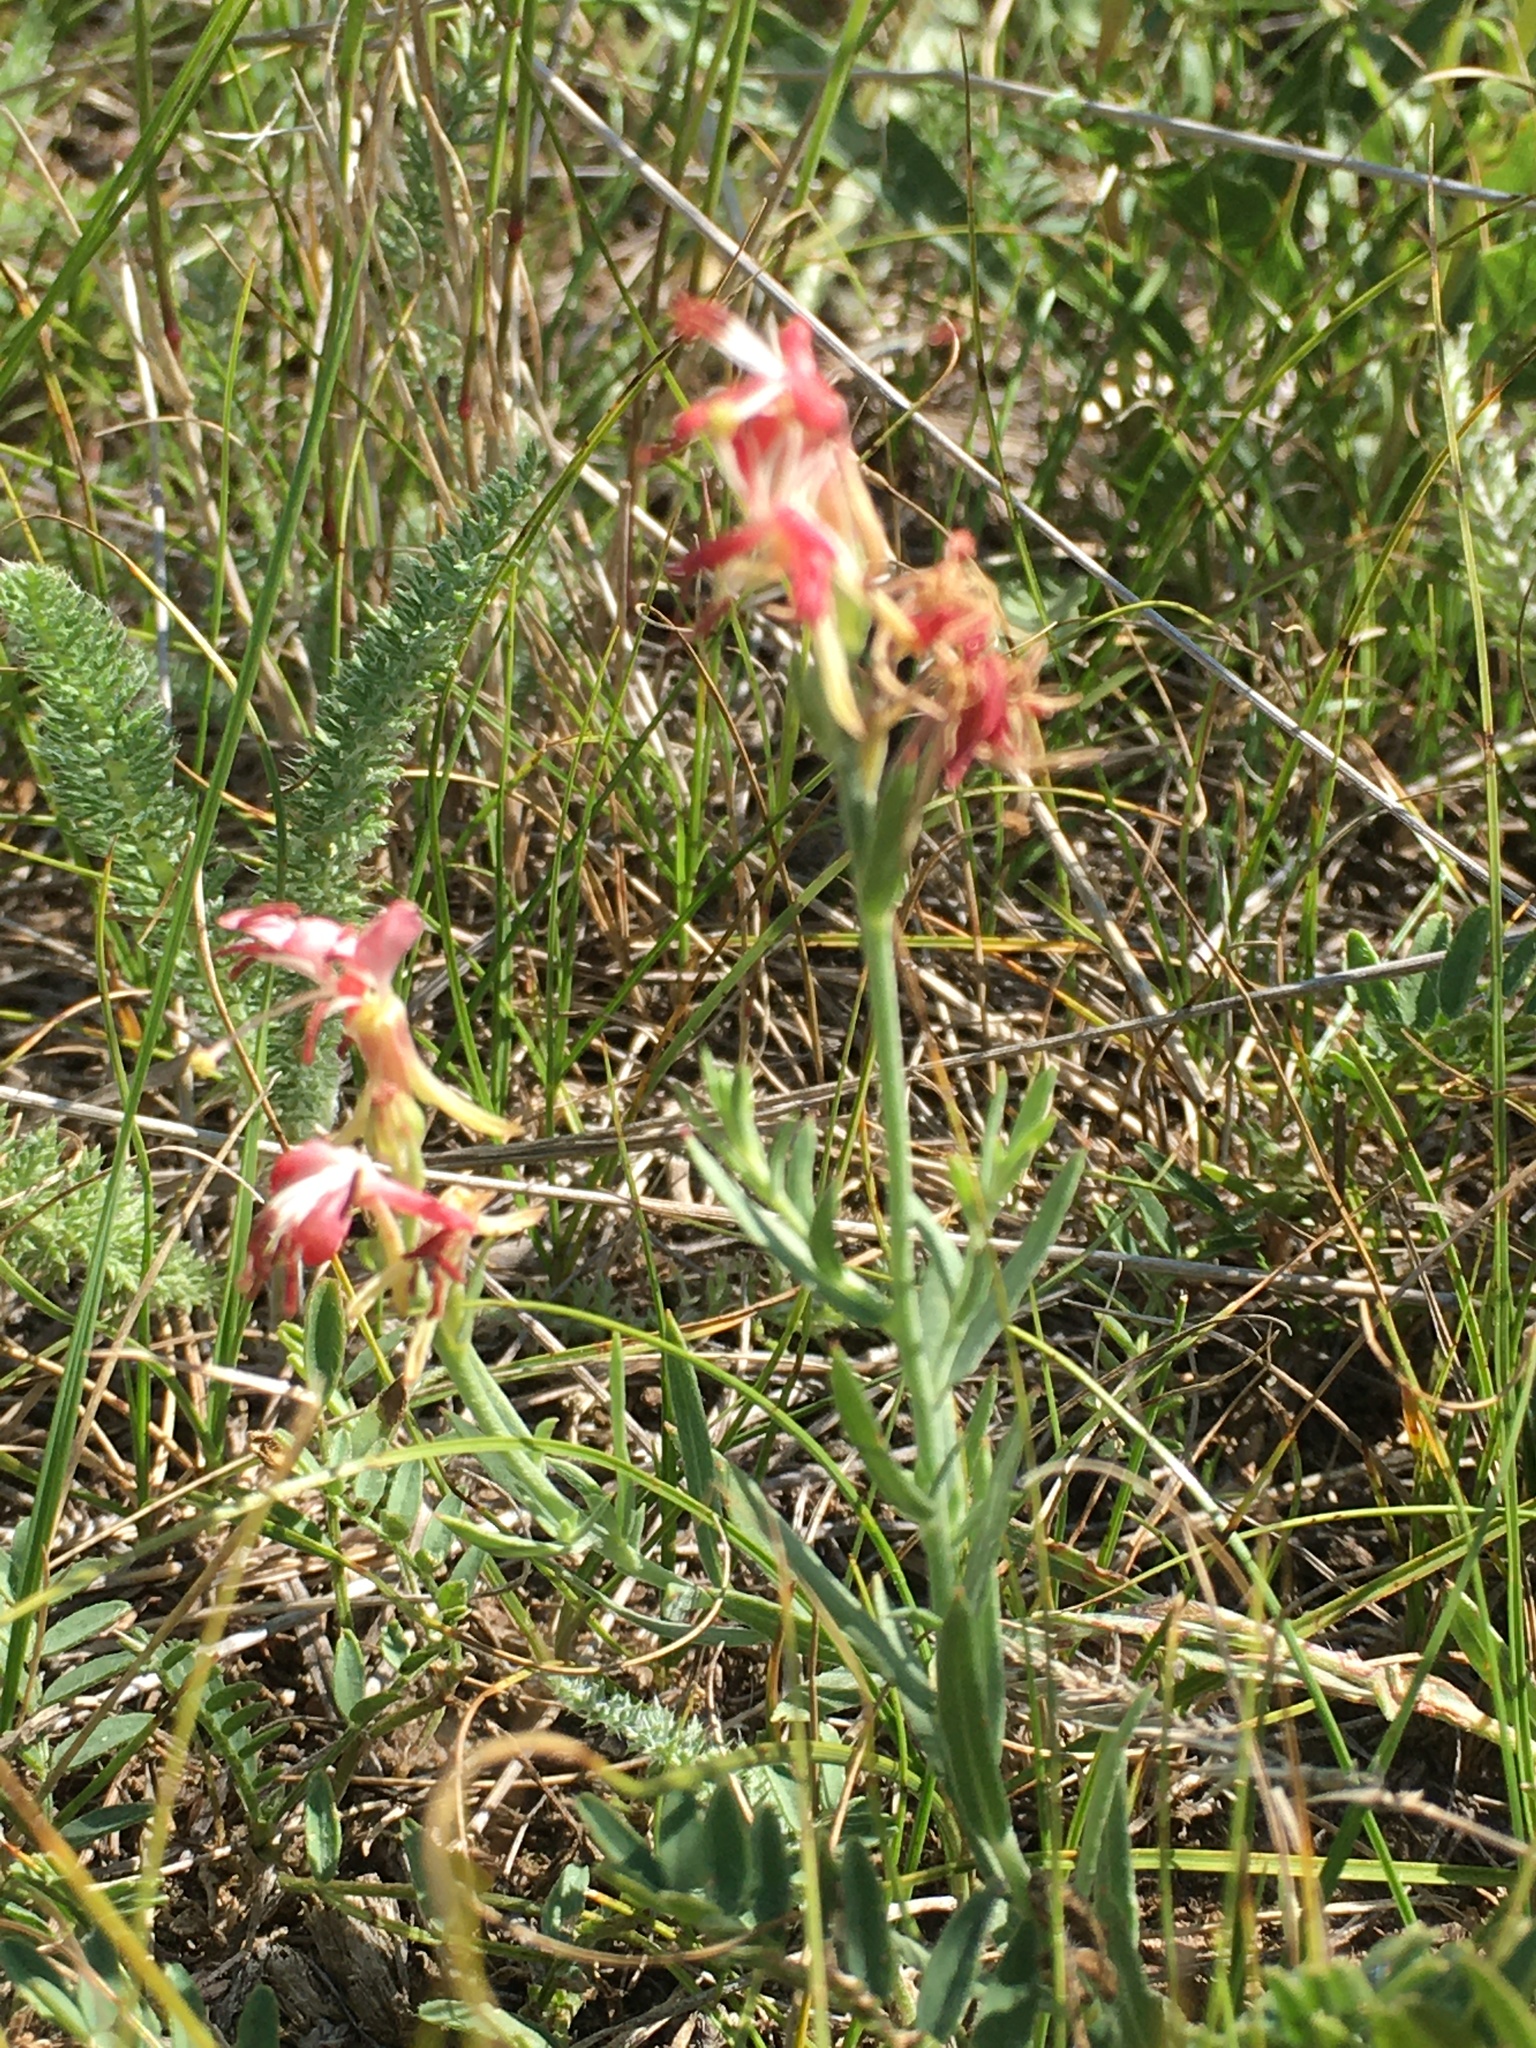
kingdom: Plantae
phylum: Tracheophyta
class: Magnoliopsida
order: Myrtales
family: Onagraceae
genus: Oenothera
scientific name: Oenothera suffrutescens
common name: Scarlet beeblossom
